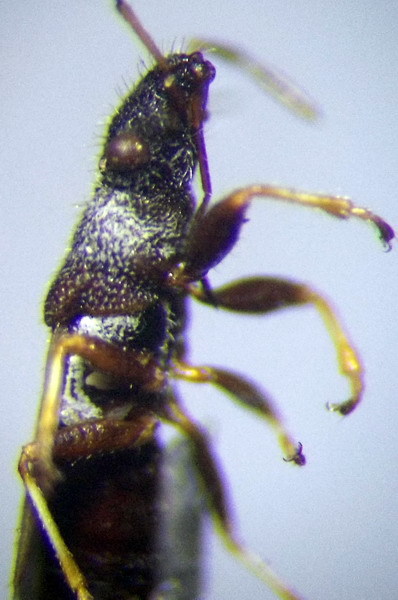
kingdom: Animalia
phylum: Arthropoda
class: Insecta
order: Hemiptera
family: Oxycarenidae
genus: Microplax
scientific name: Microplax interrupta
